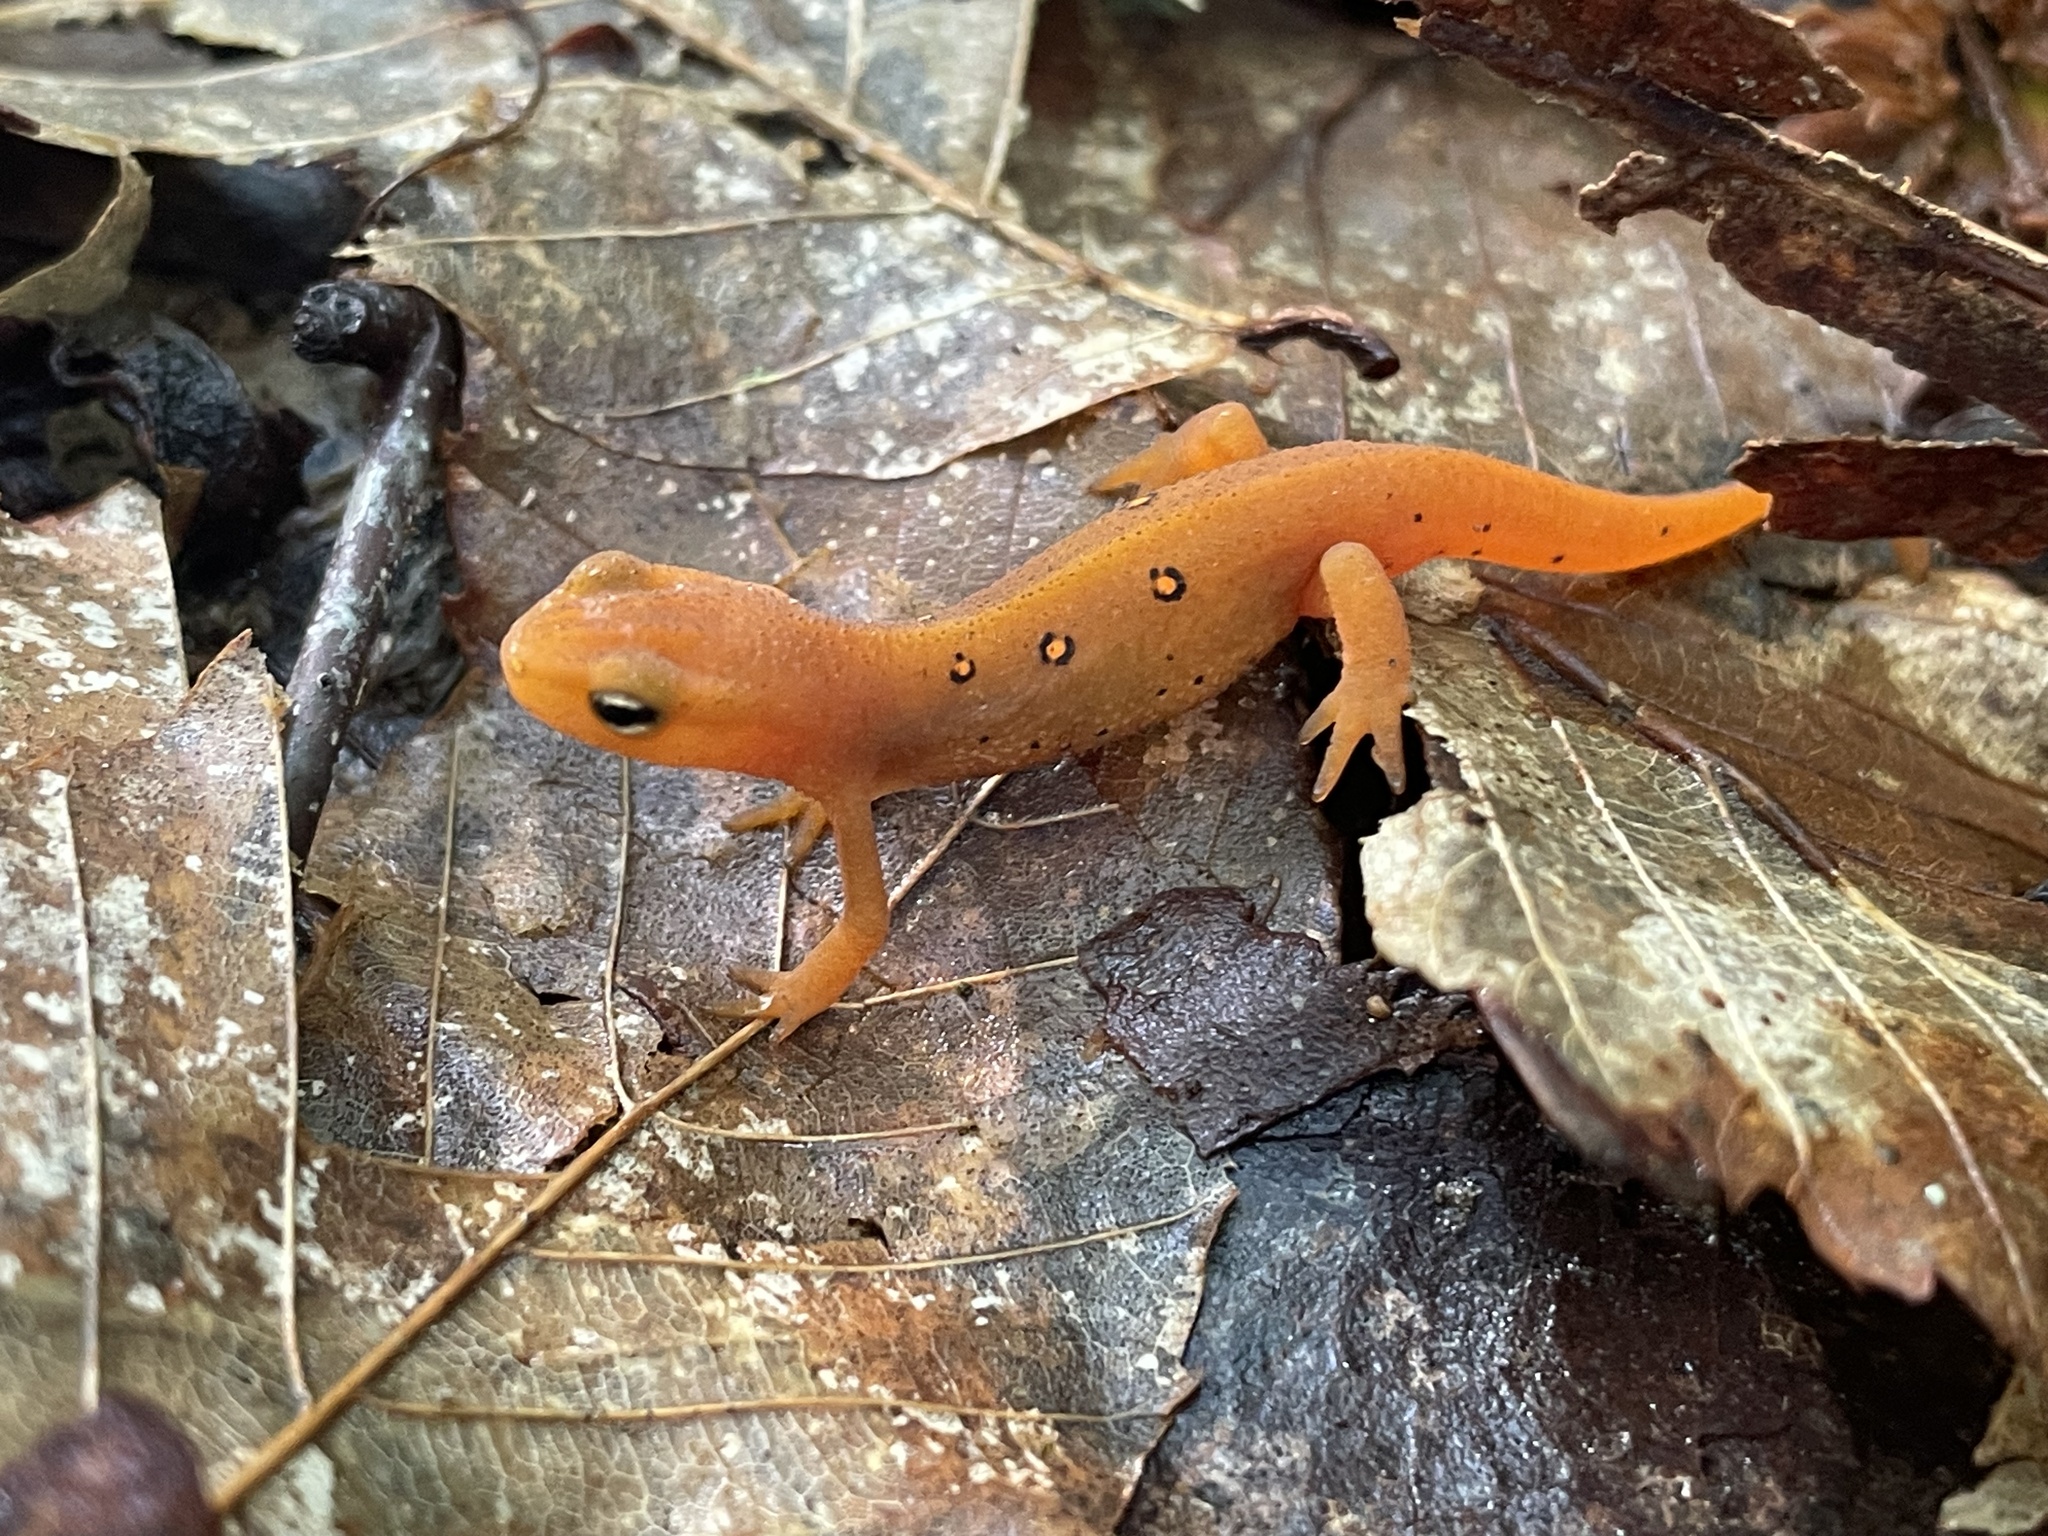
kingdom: Animalia
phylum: Chordata
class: Amphibia
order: Caudata
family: Salamandridae
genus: Notophthalmus
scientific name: Notophthalmus viridescens
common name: Eastern newt
